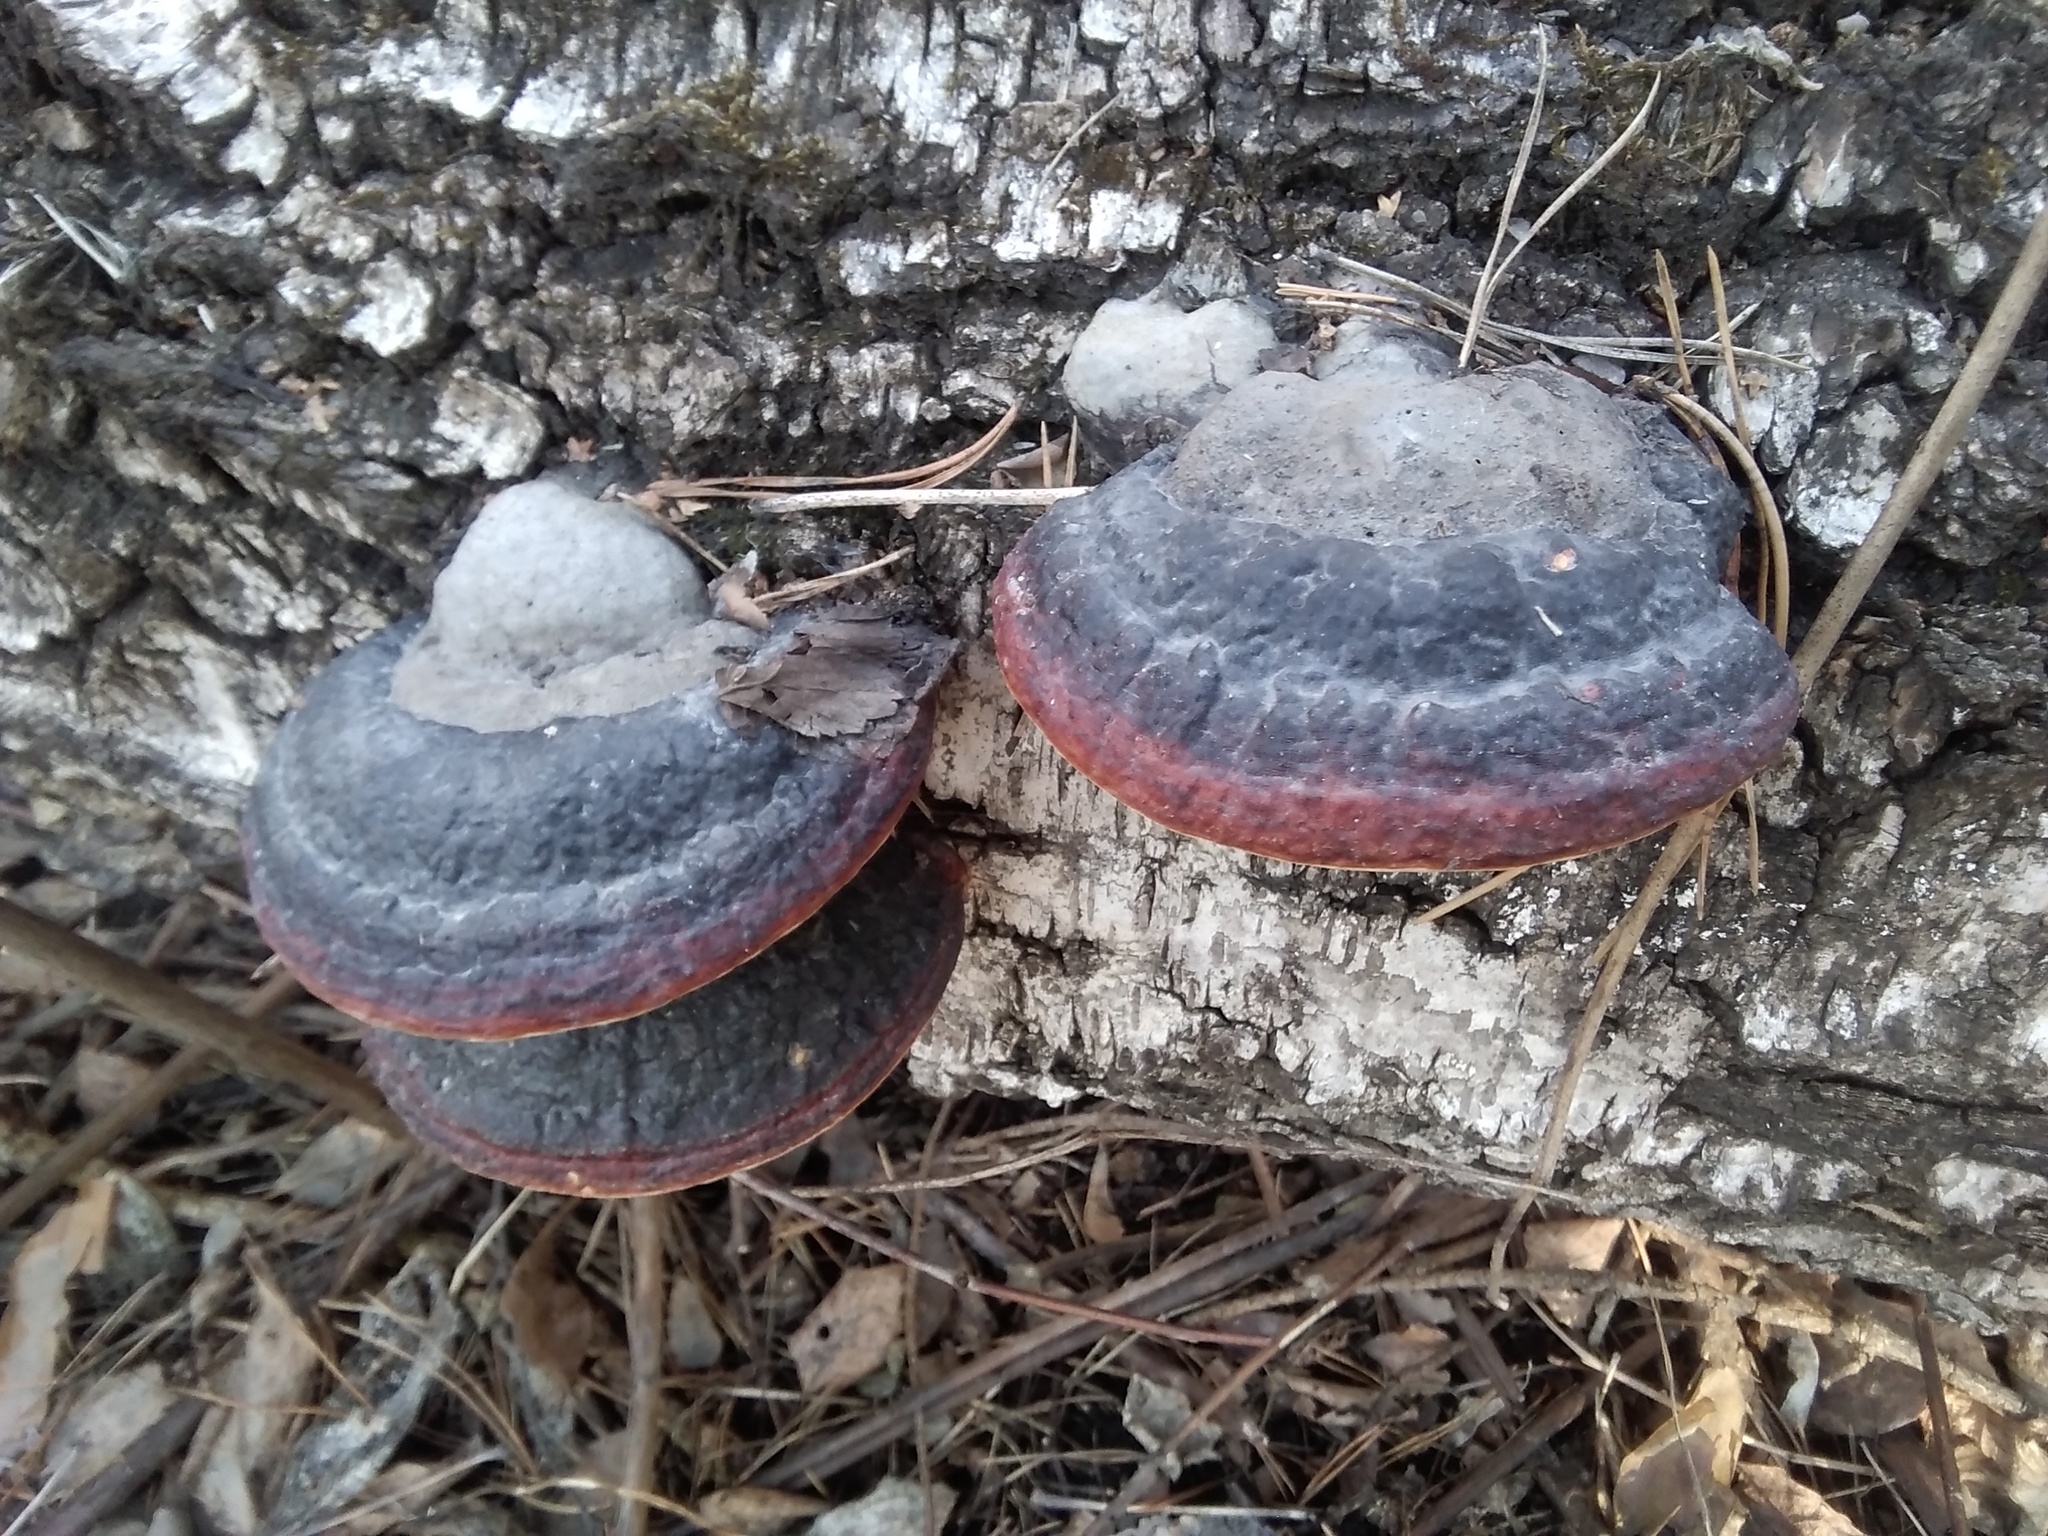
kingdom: Fungi
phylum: Basidiomycota
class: Agaricomycetes
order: Polyporales
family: Fomitopsidaceae
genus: Fomitopsis
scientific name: Fomitopsis pinicola
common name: Red-belted bracket
